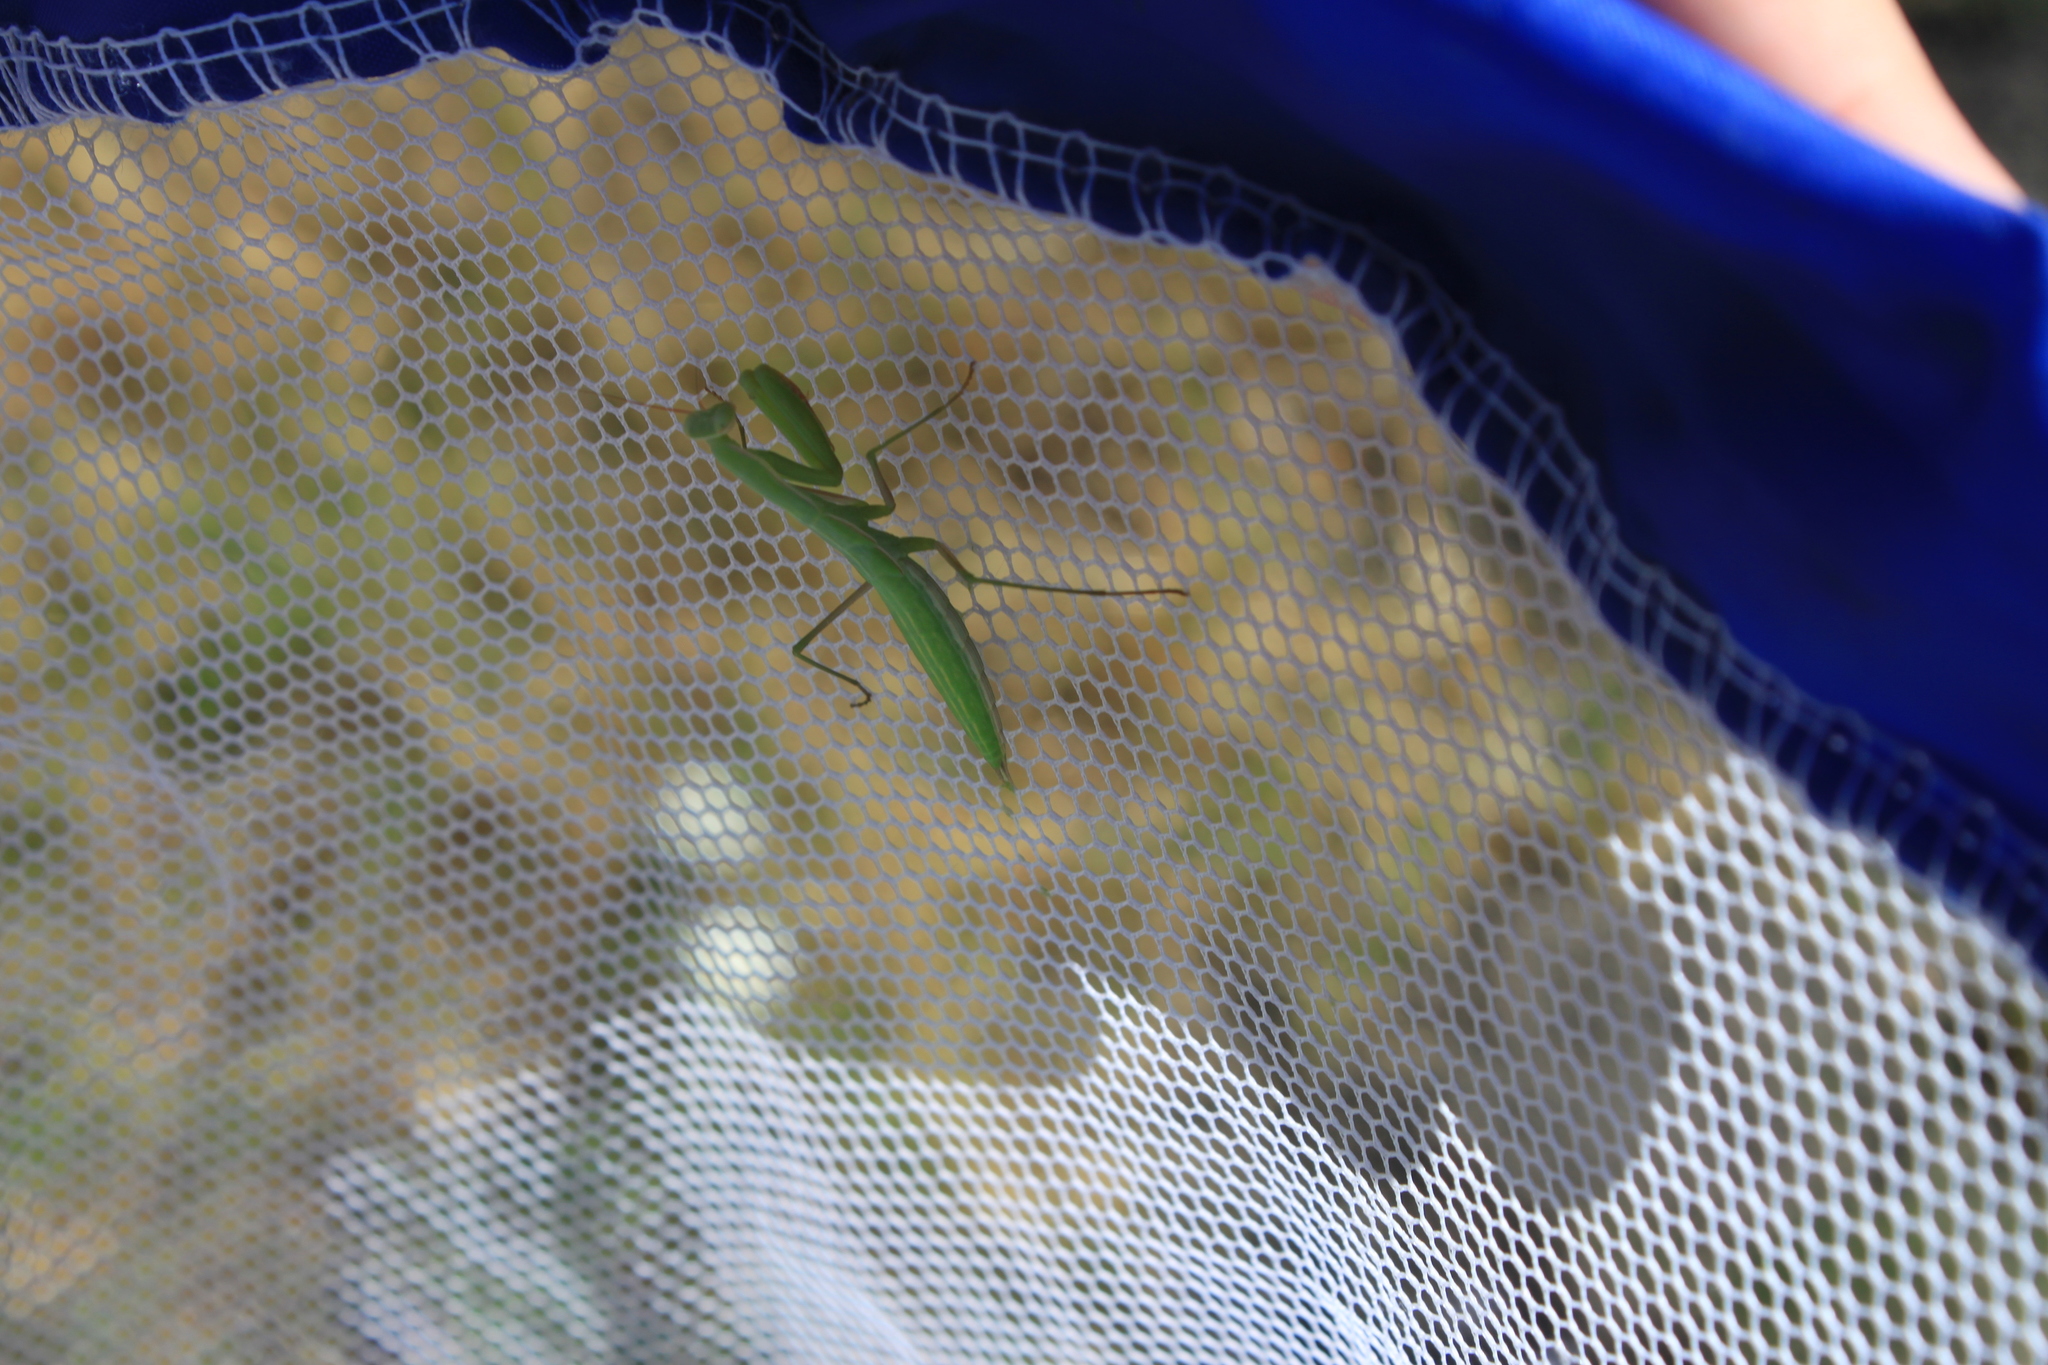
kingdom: Animalia
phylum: Arthropoda
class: Insecta
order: Mantodea
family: Mantidae
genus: Mantis
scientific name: Mantis religiosa
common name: Praying mantis
